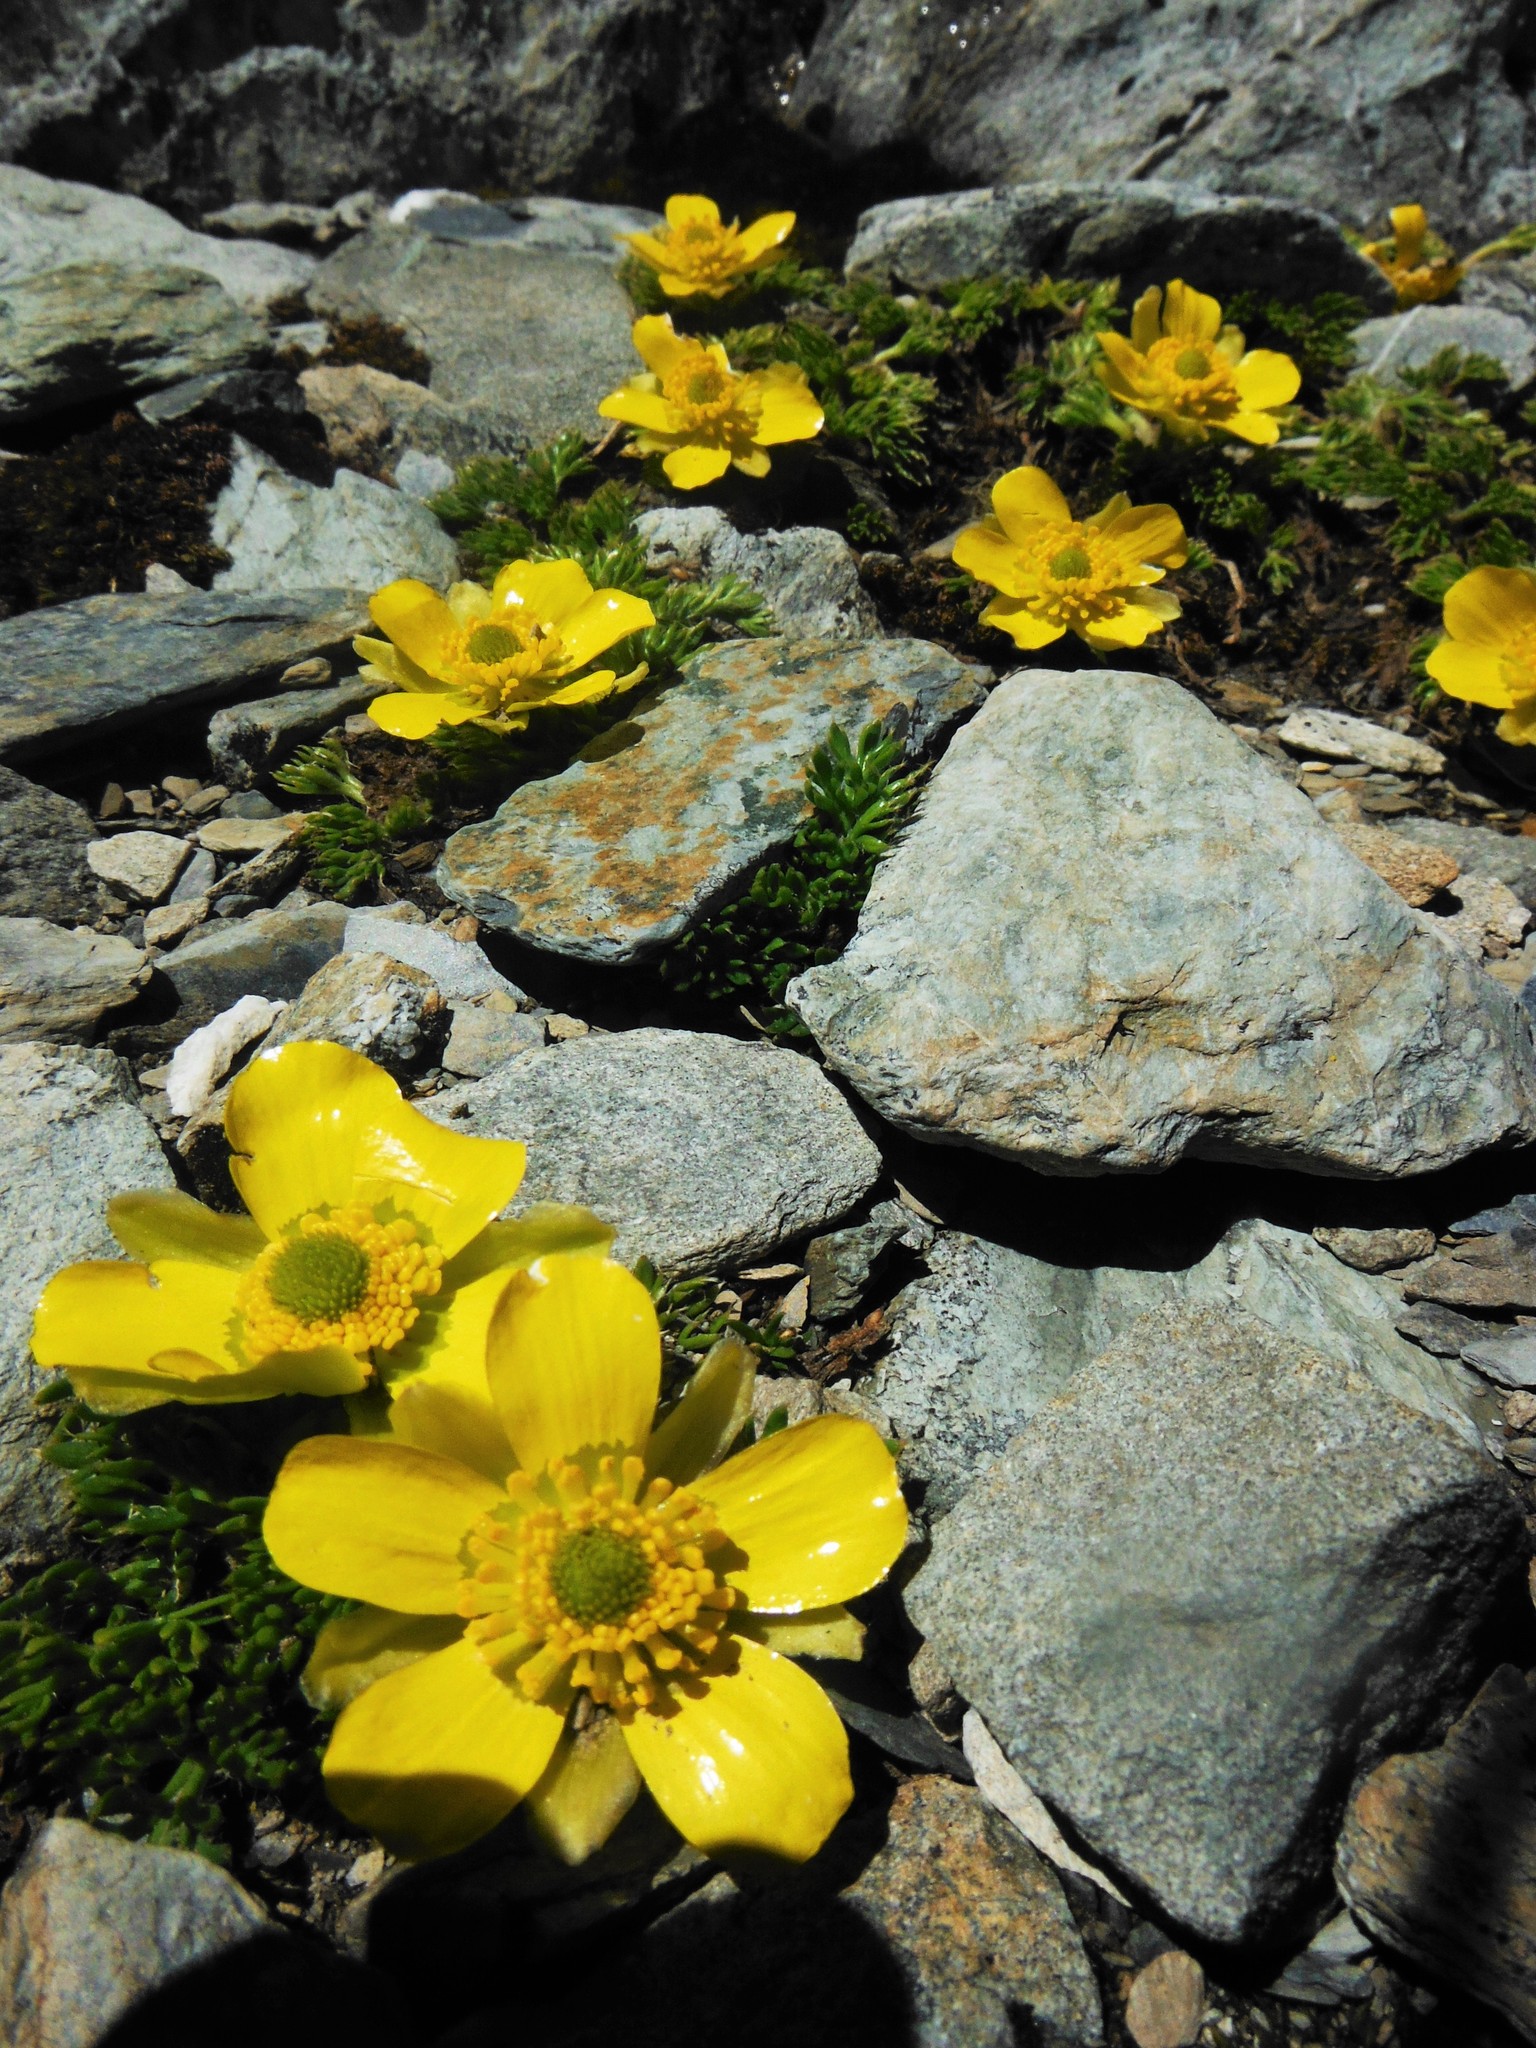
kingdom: Plantae
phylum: Tracheophyta
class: Magnoliopsida
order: Ranunculales
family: Ranunculaceae
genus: Ranunculus
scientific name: Ranunculus sericophyllus
